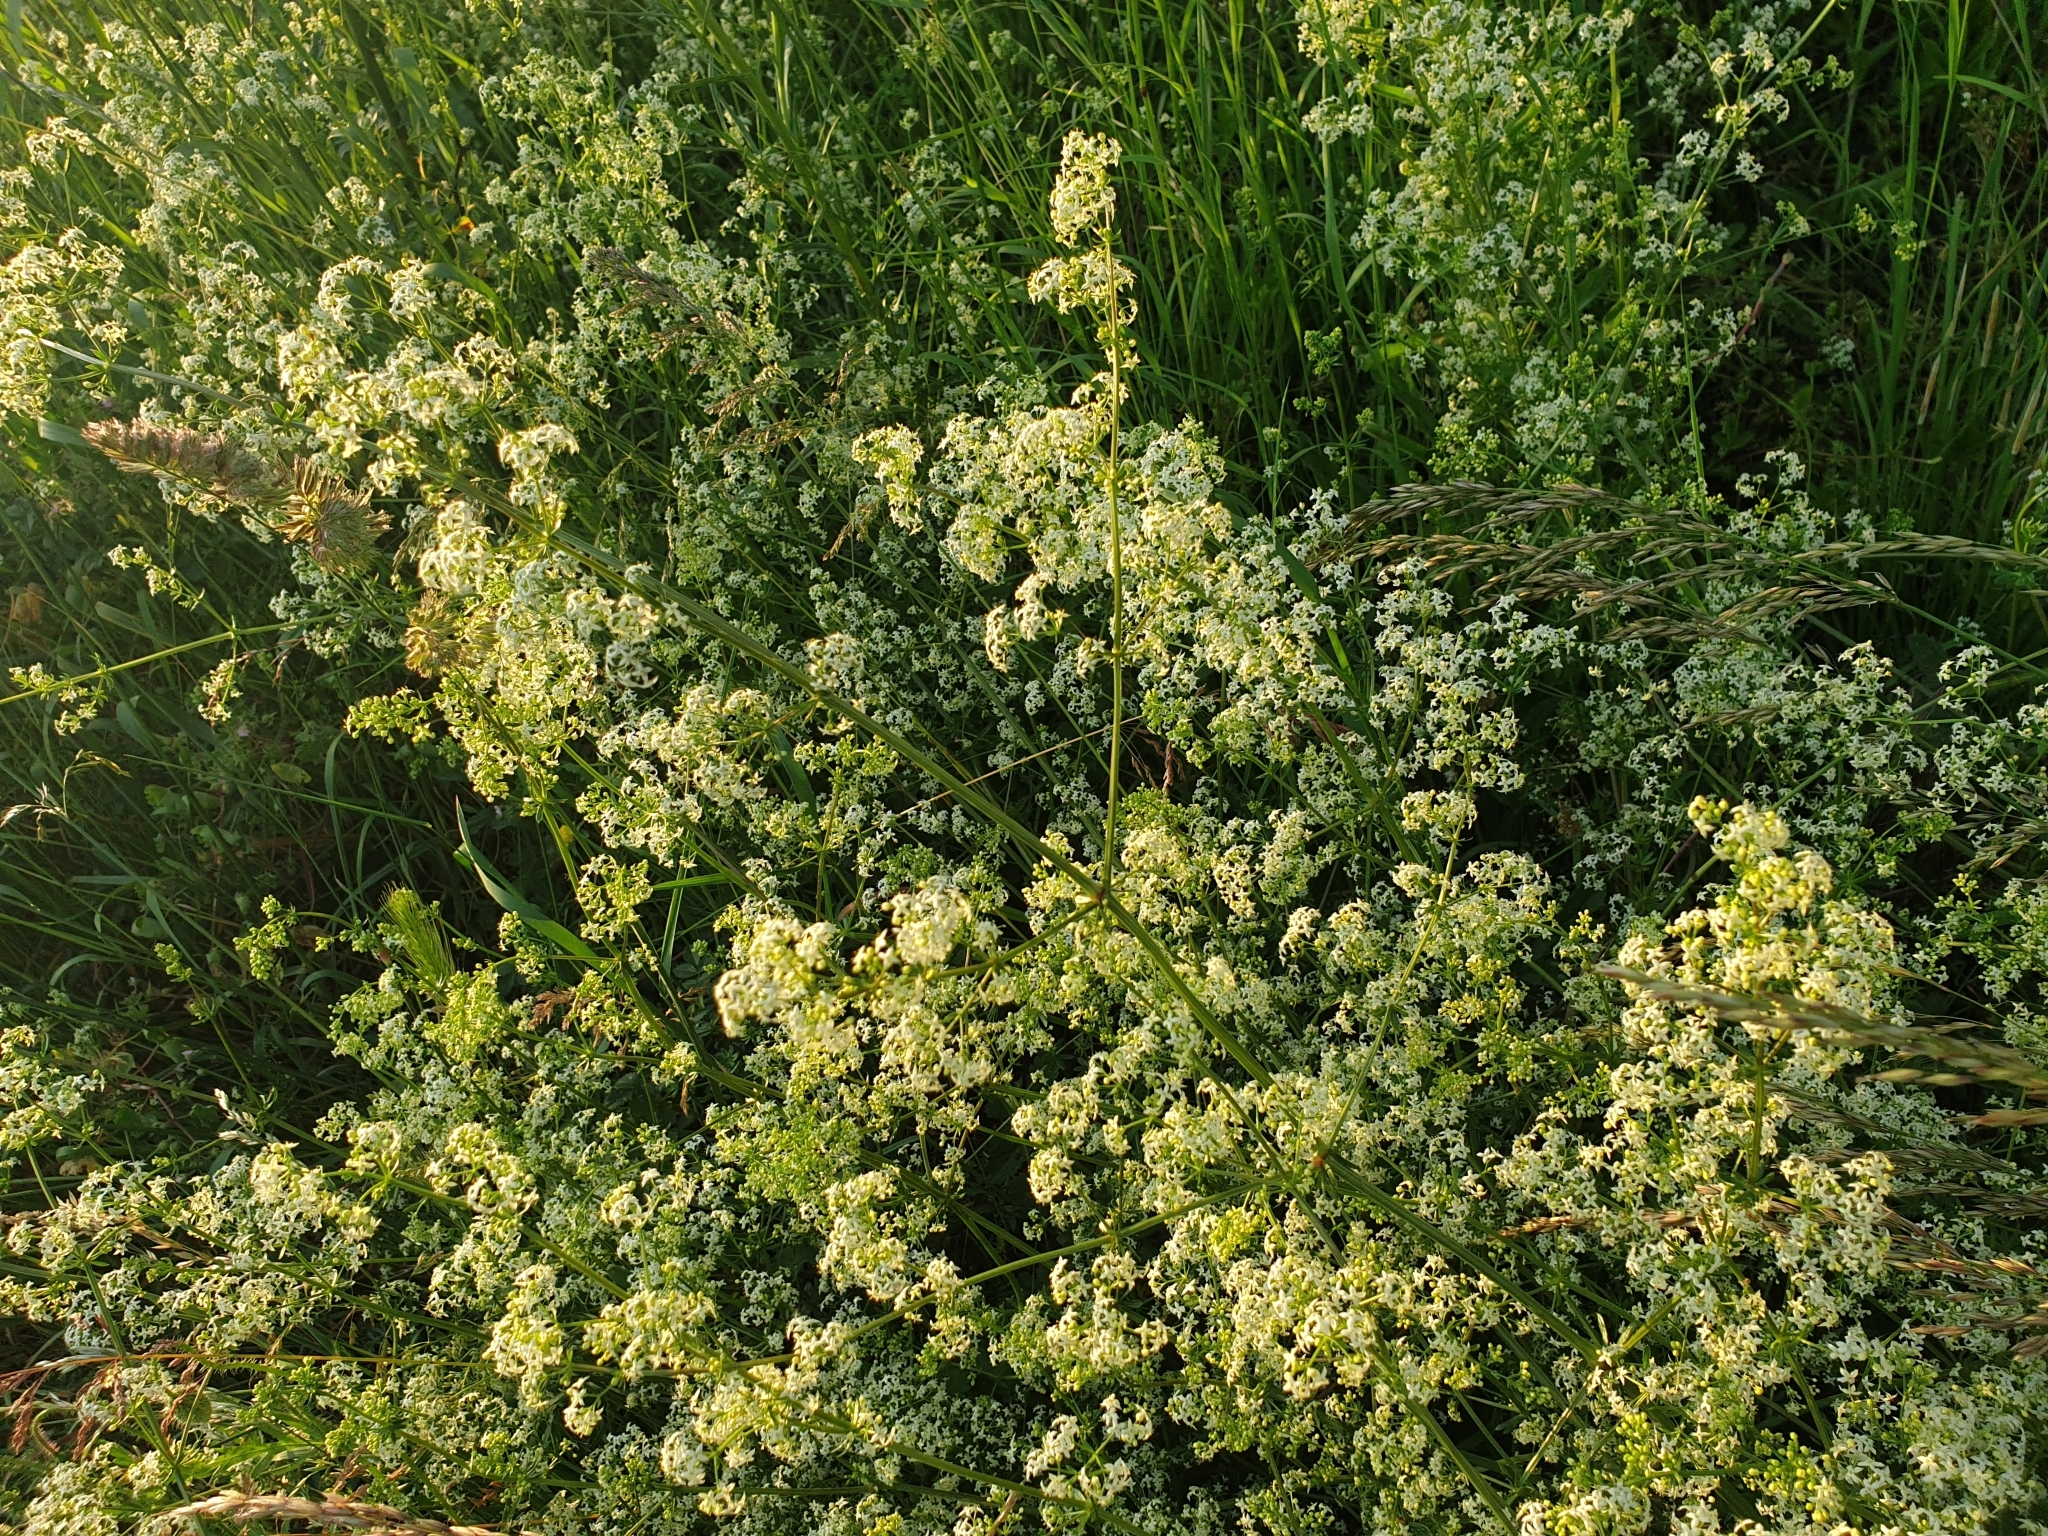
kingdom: Plantae
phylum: Tracheophyta
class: Magnoliopsida
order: Gentianales
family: Rubiaceae
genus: Galium
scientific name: Galium mollugo
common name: Hedge bedstraw
